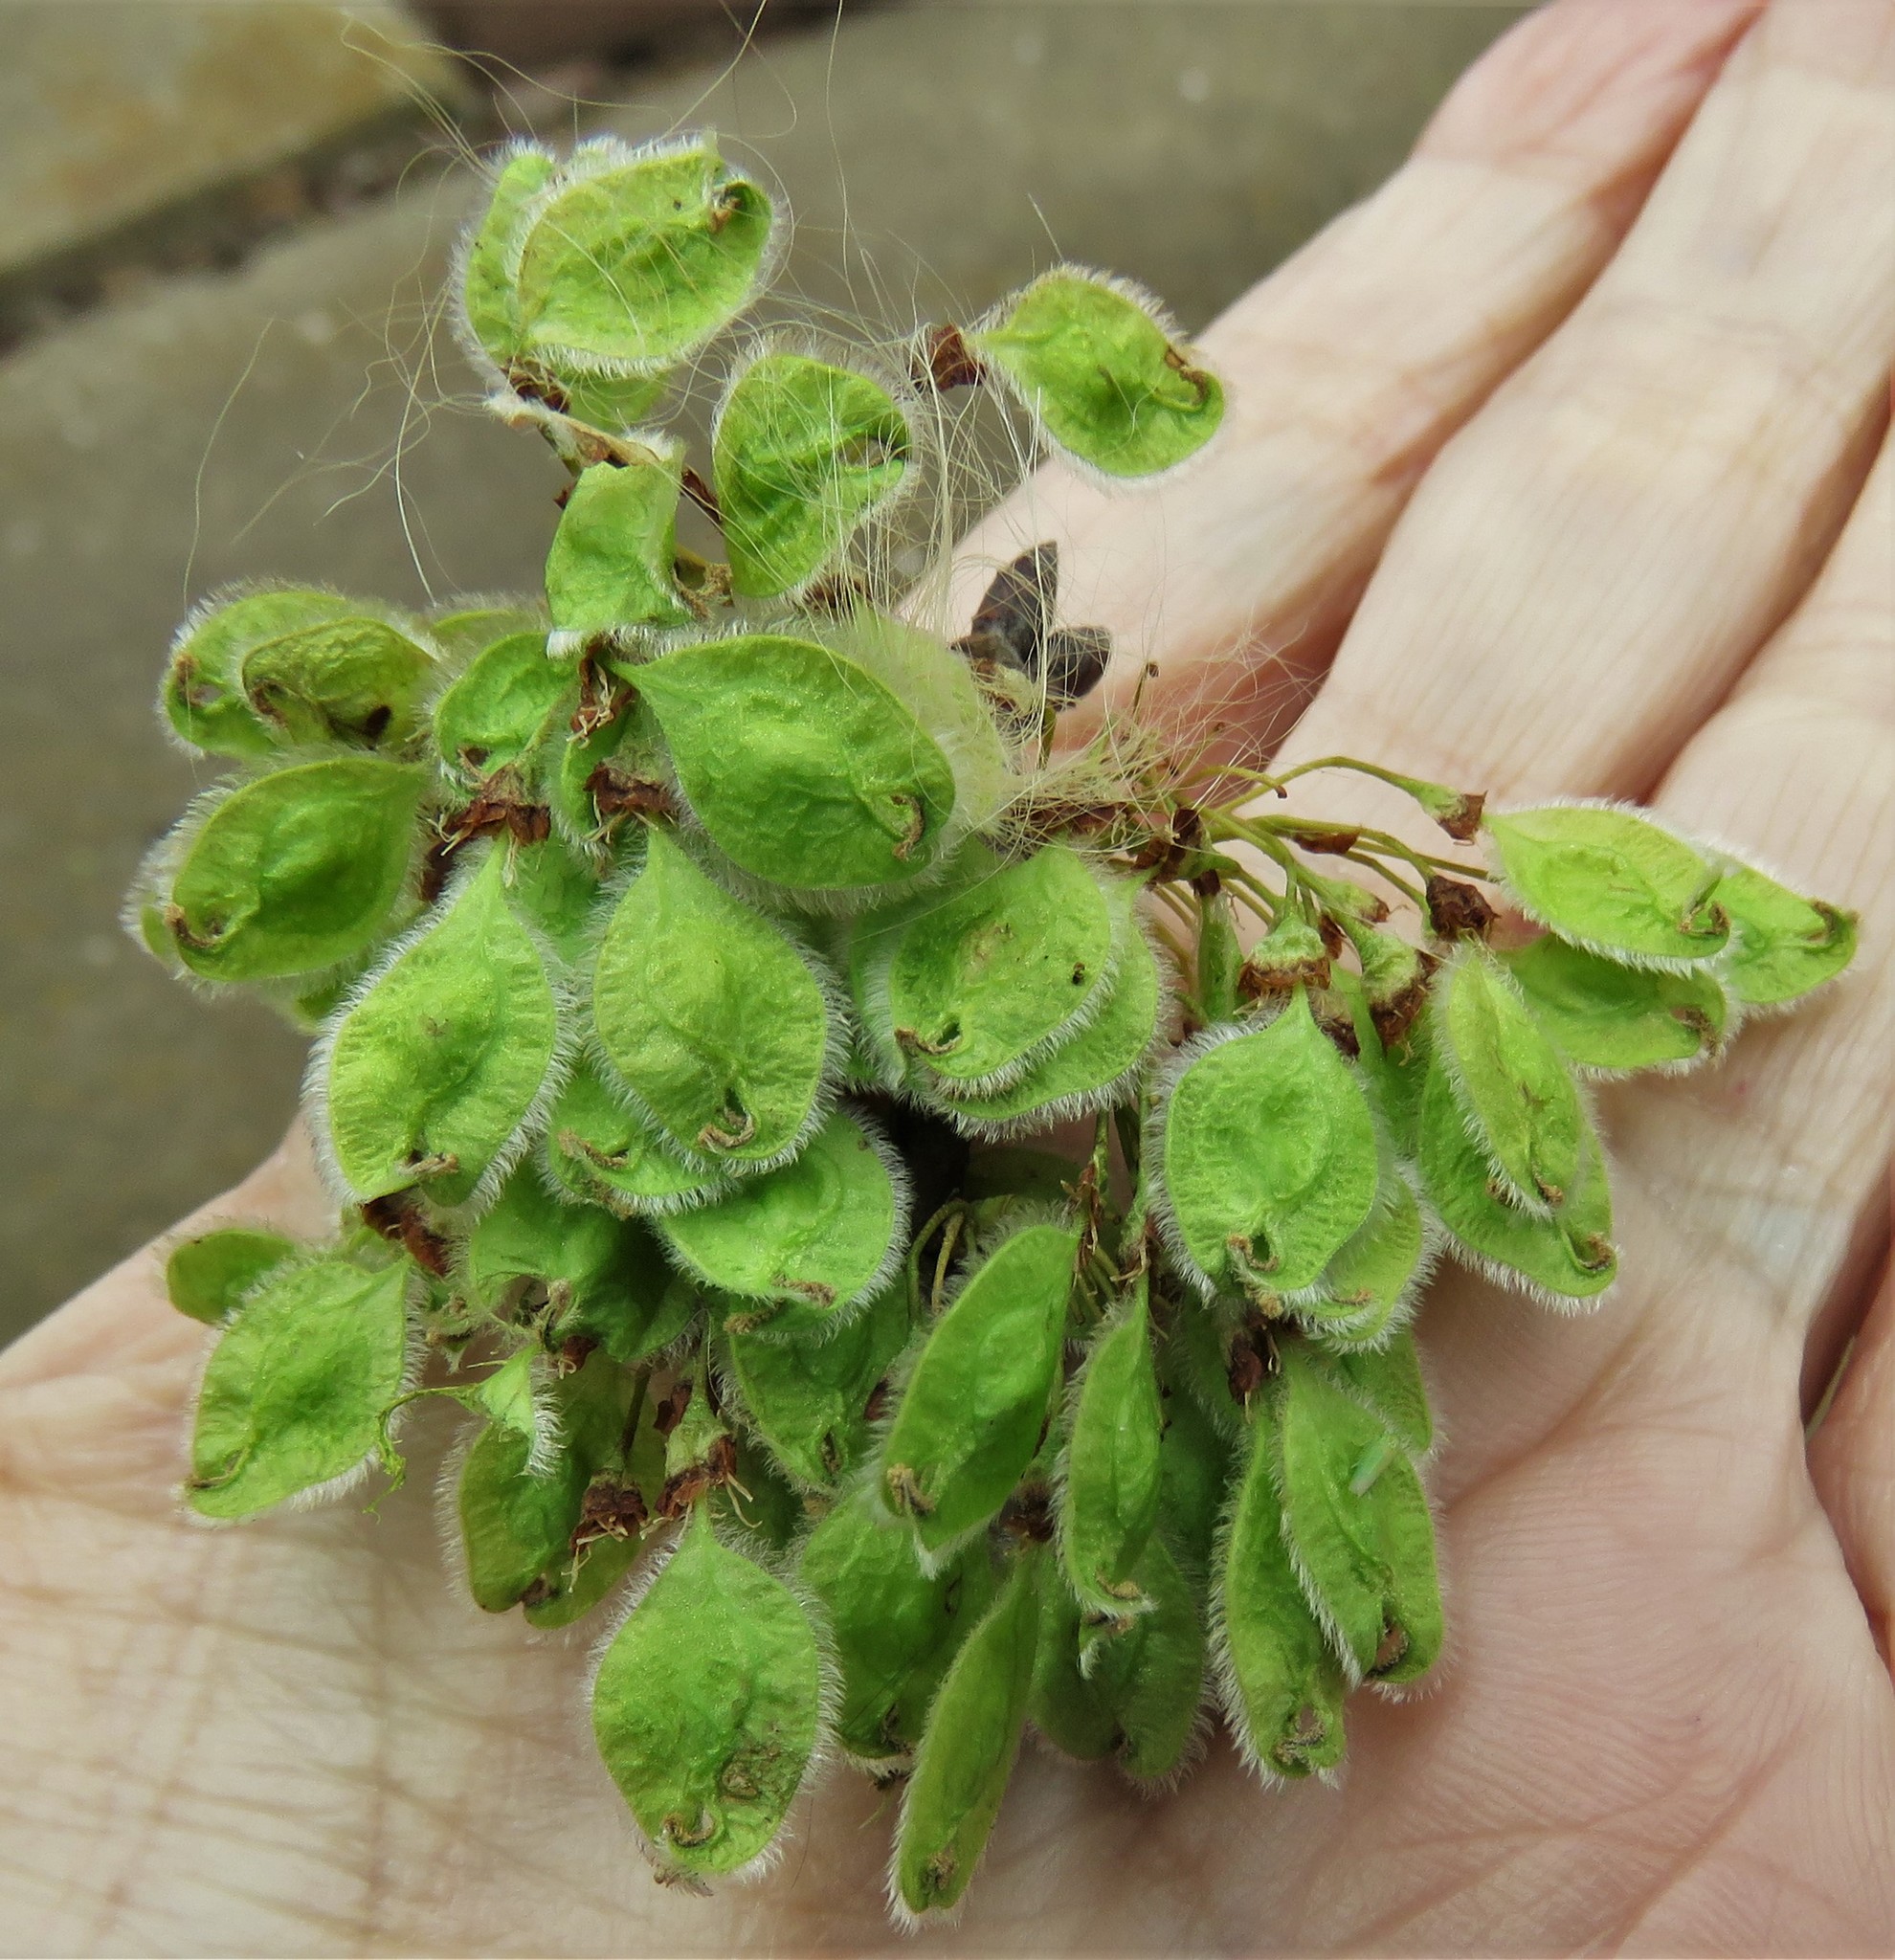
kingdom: Plantae
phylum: Tracheophyta
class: Magnoliopsida
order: Rosales
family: Ulmaceae
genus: Ulmus
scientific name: Ulmus americana
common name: American elm
